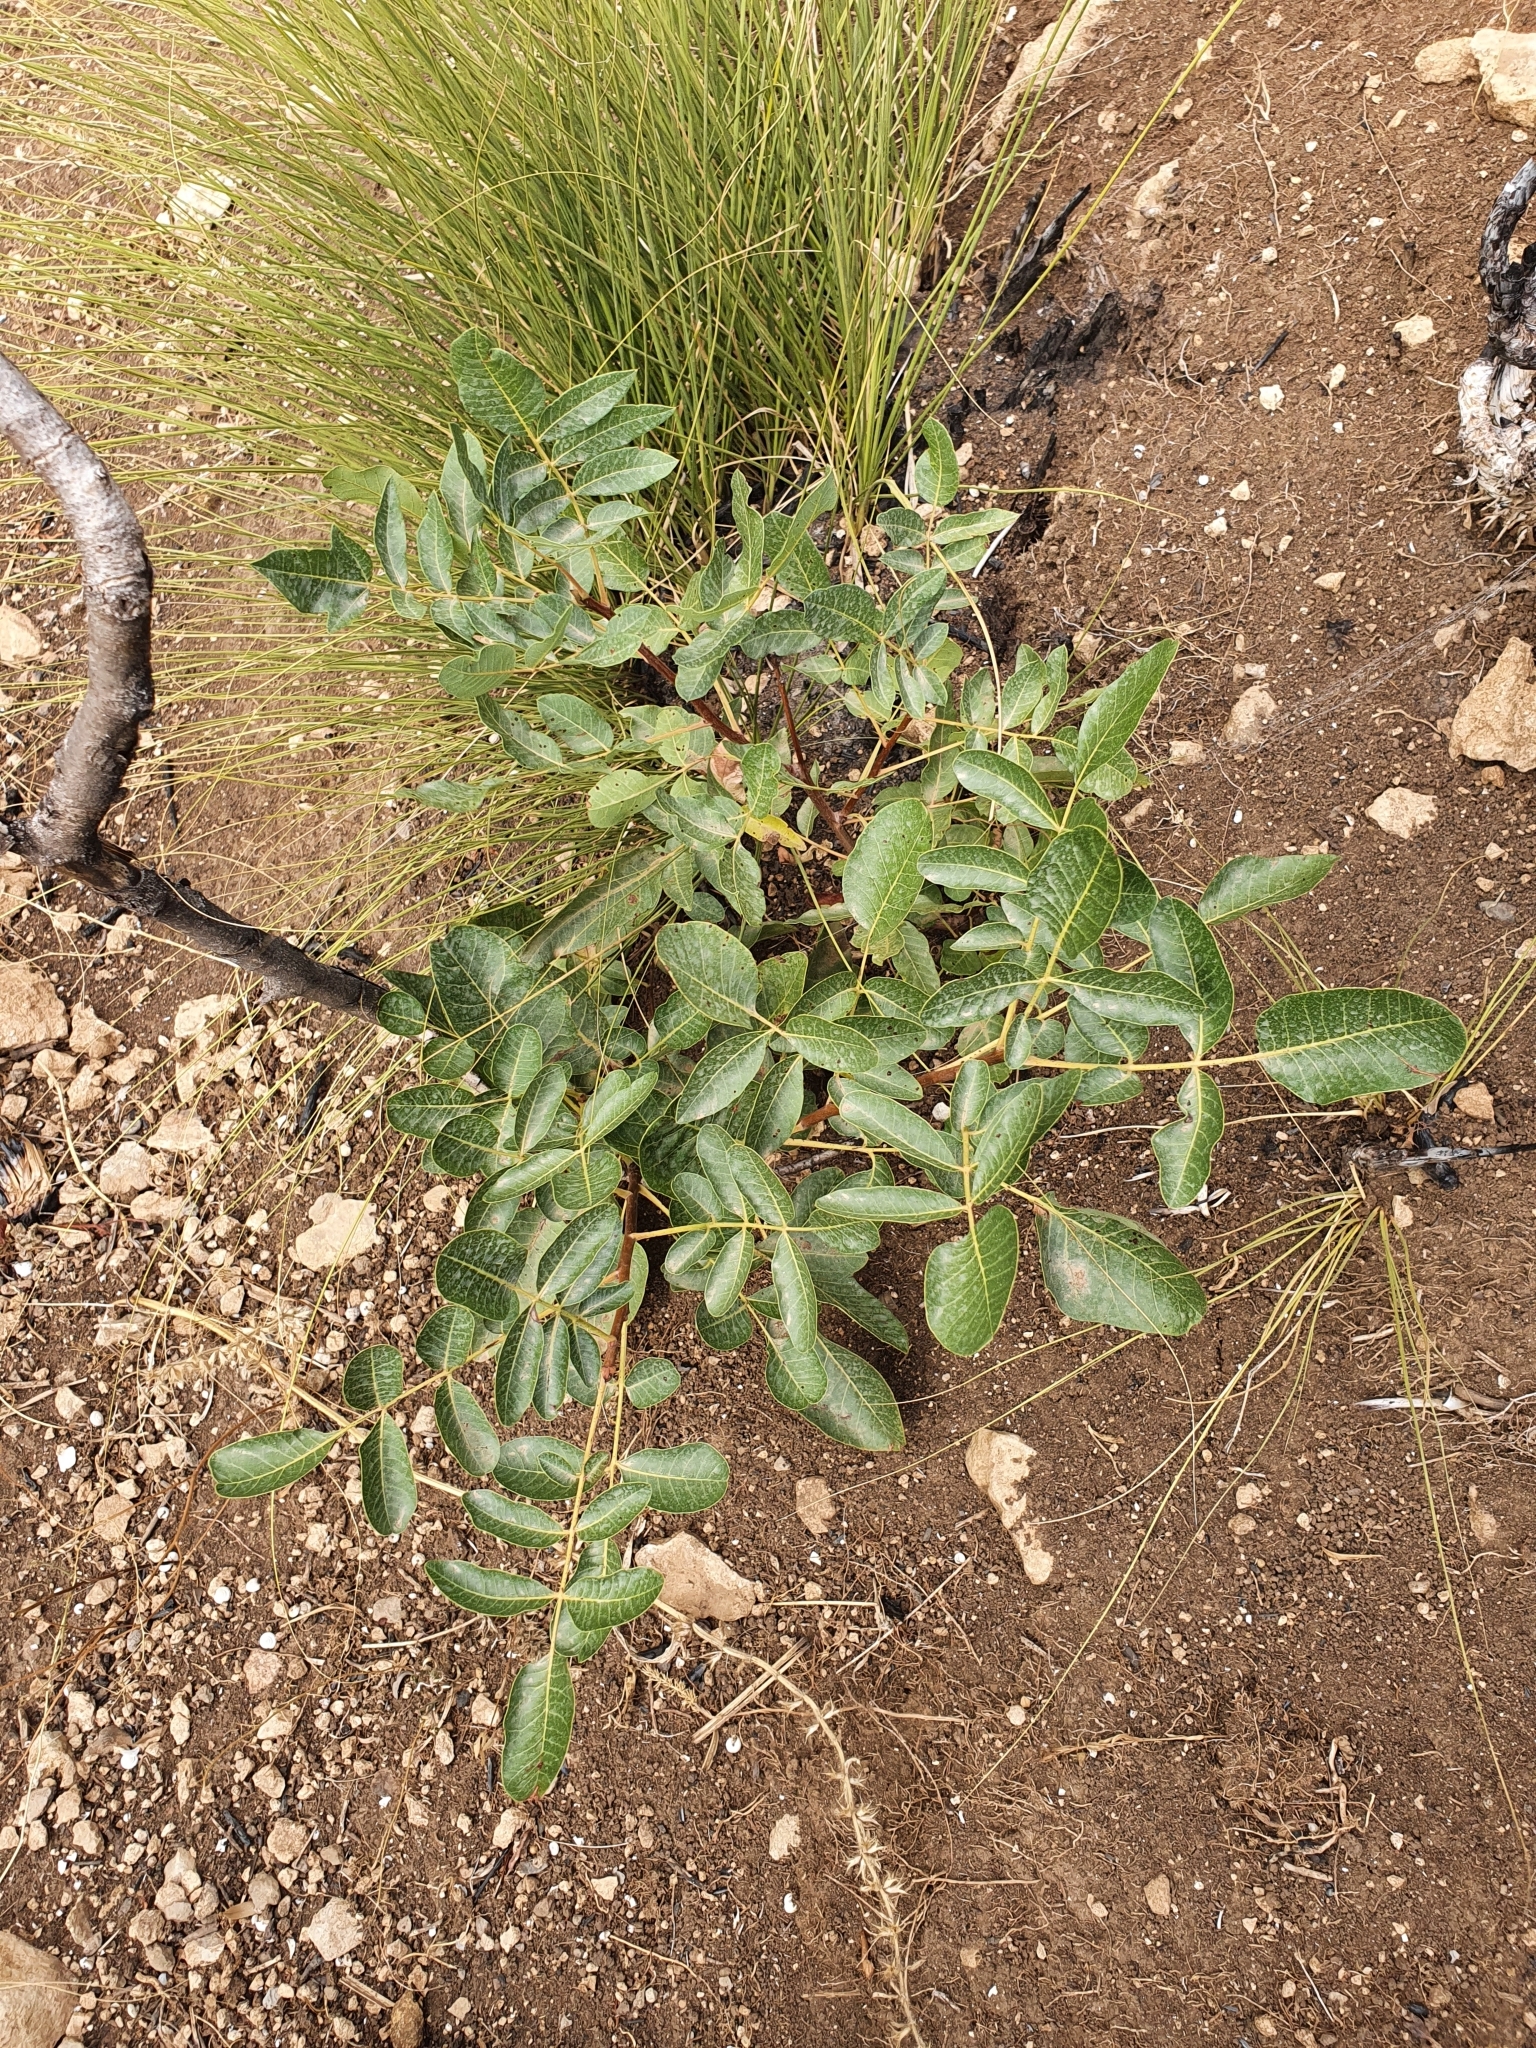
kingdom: Plantae
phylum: Tracheophyta
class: Magnoliopsida
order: Sapindales
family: Anacardiaceae
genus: Pistacia
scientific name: Pistacia terebinthus
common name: Terebinth
